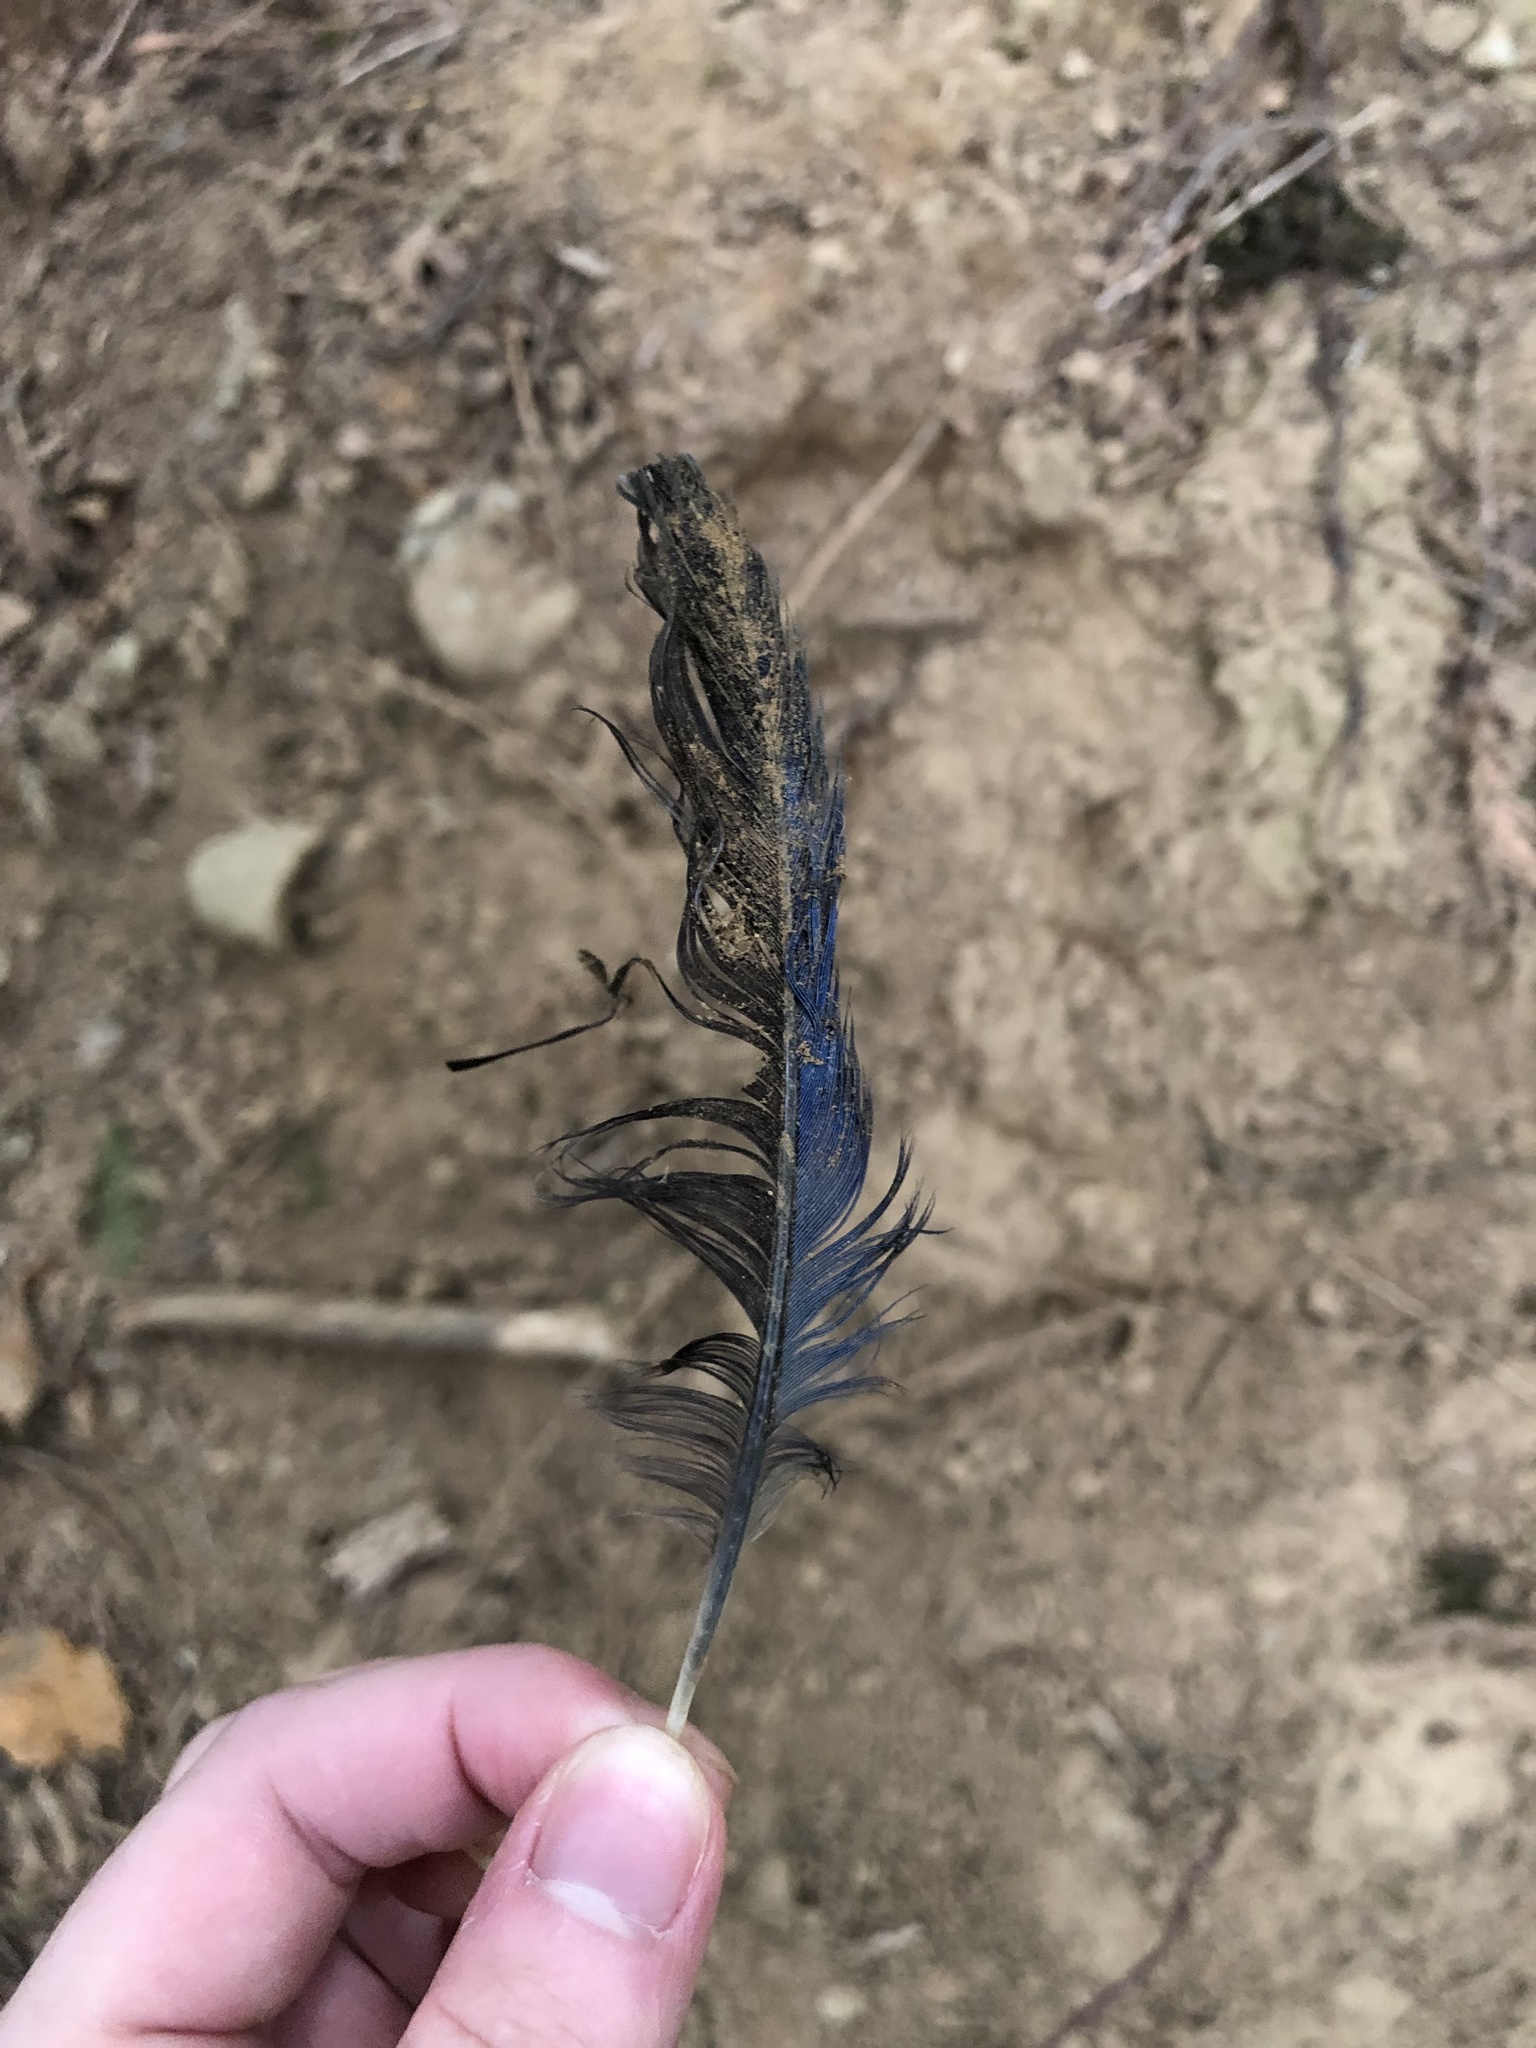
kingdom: Animalia
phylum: Chordata
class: Aves
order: Passeriformes
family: Corvidae
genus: Cyanocitta
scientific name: Cyanocitta stelleri
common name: Steller's jay
